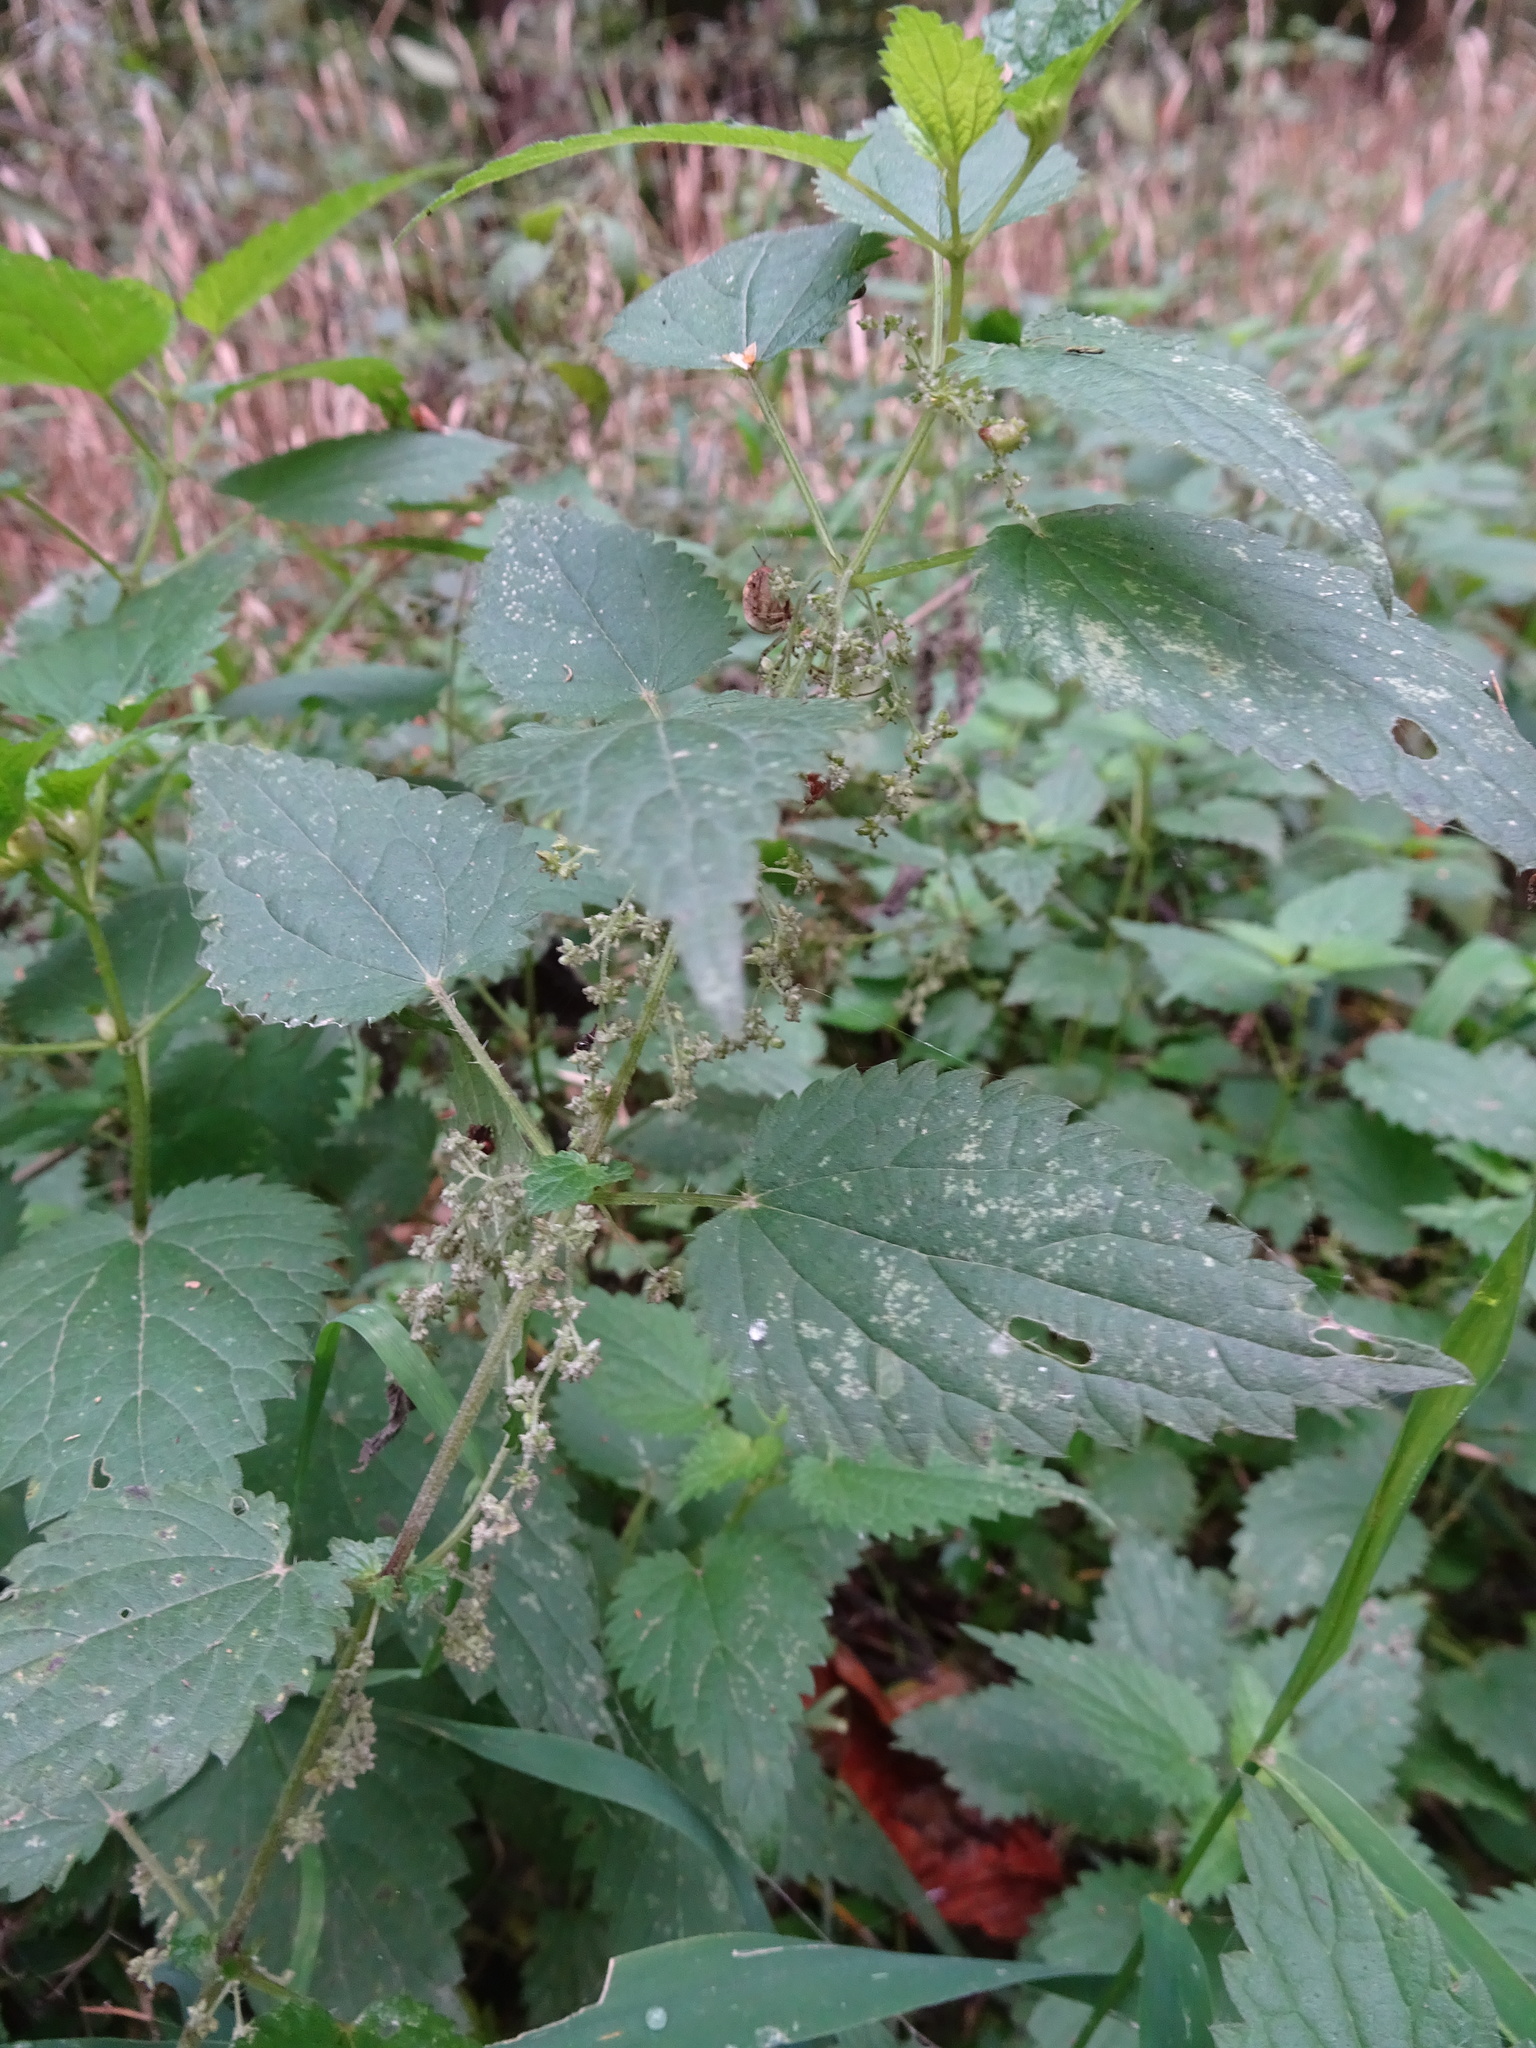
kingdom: Plantae
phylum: Tracheophyta
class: Magnoliopsida
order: Rosales
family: Urticaceae
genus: Urtica
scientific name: Urtica dioica
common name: Common nettle
